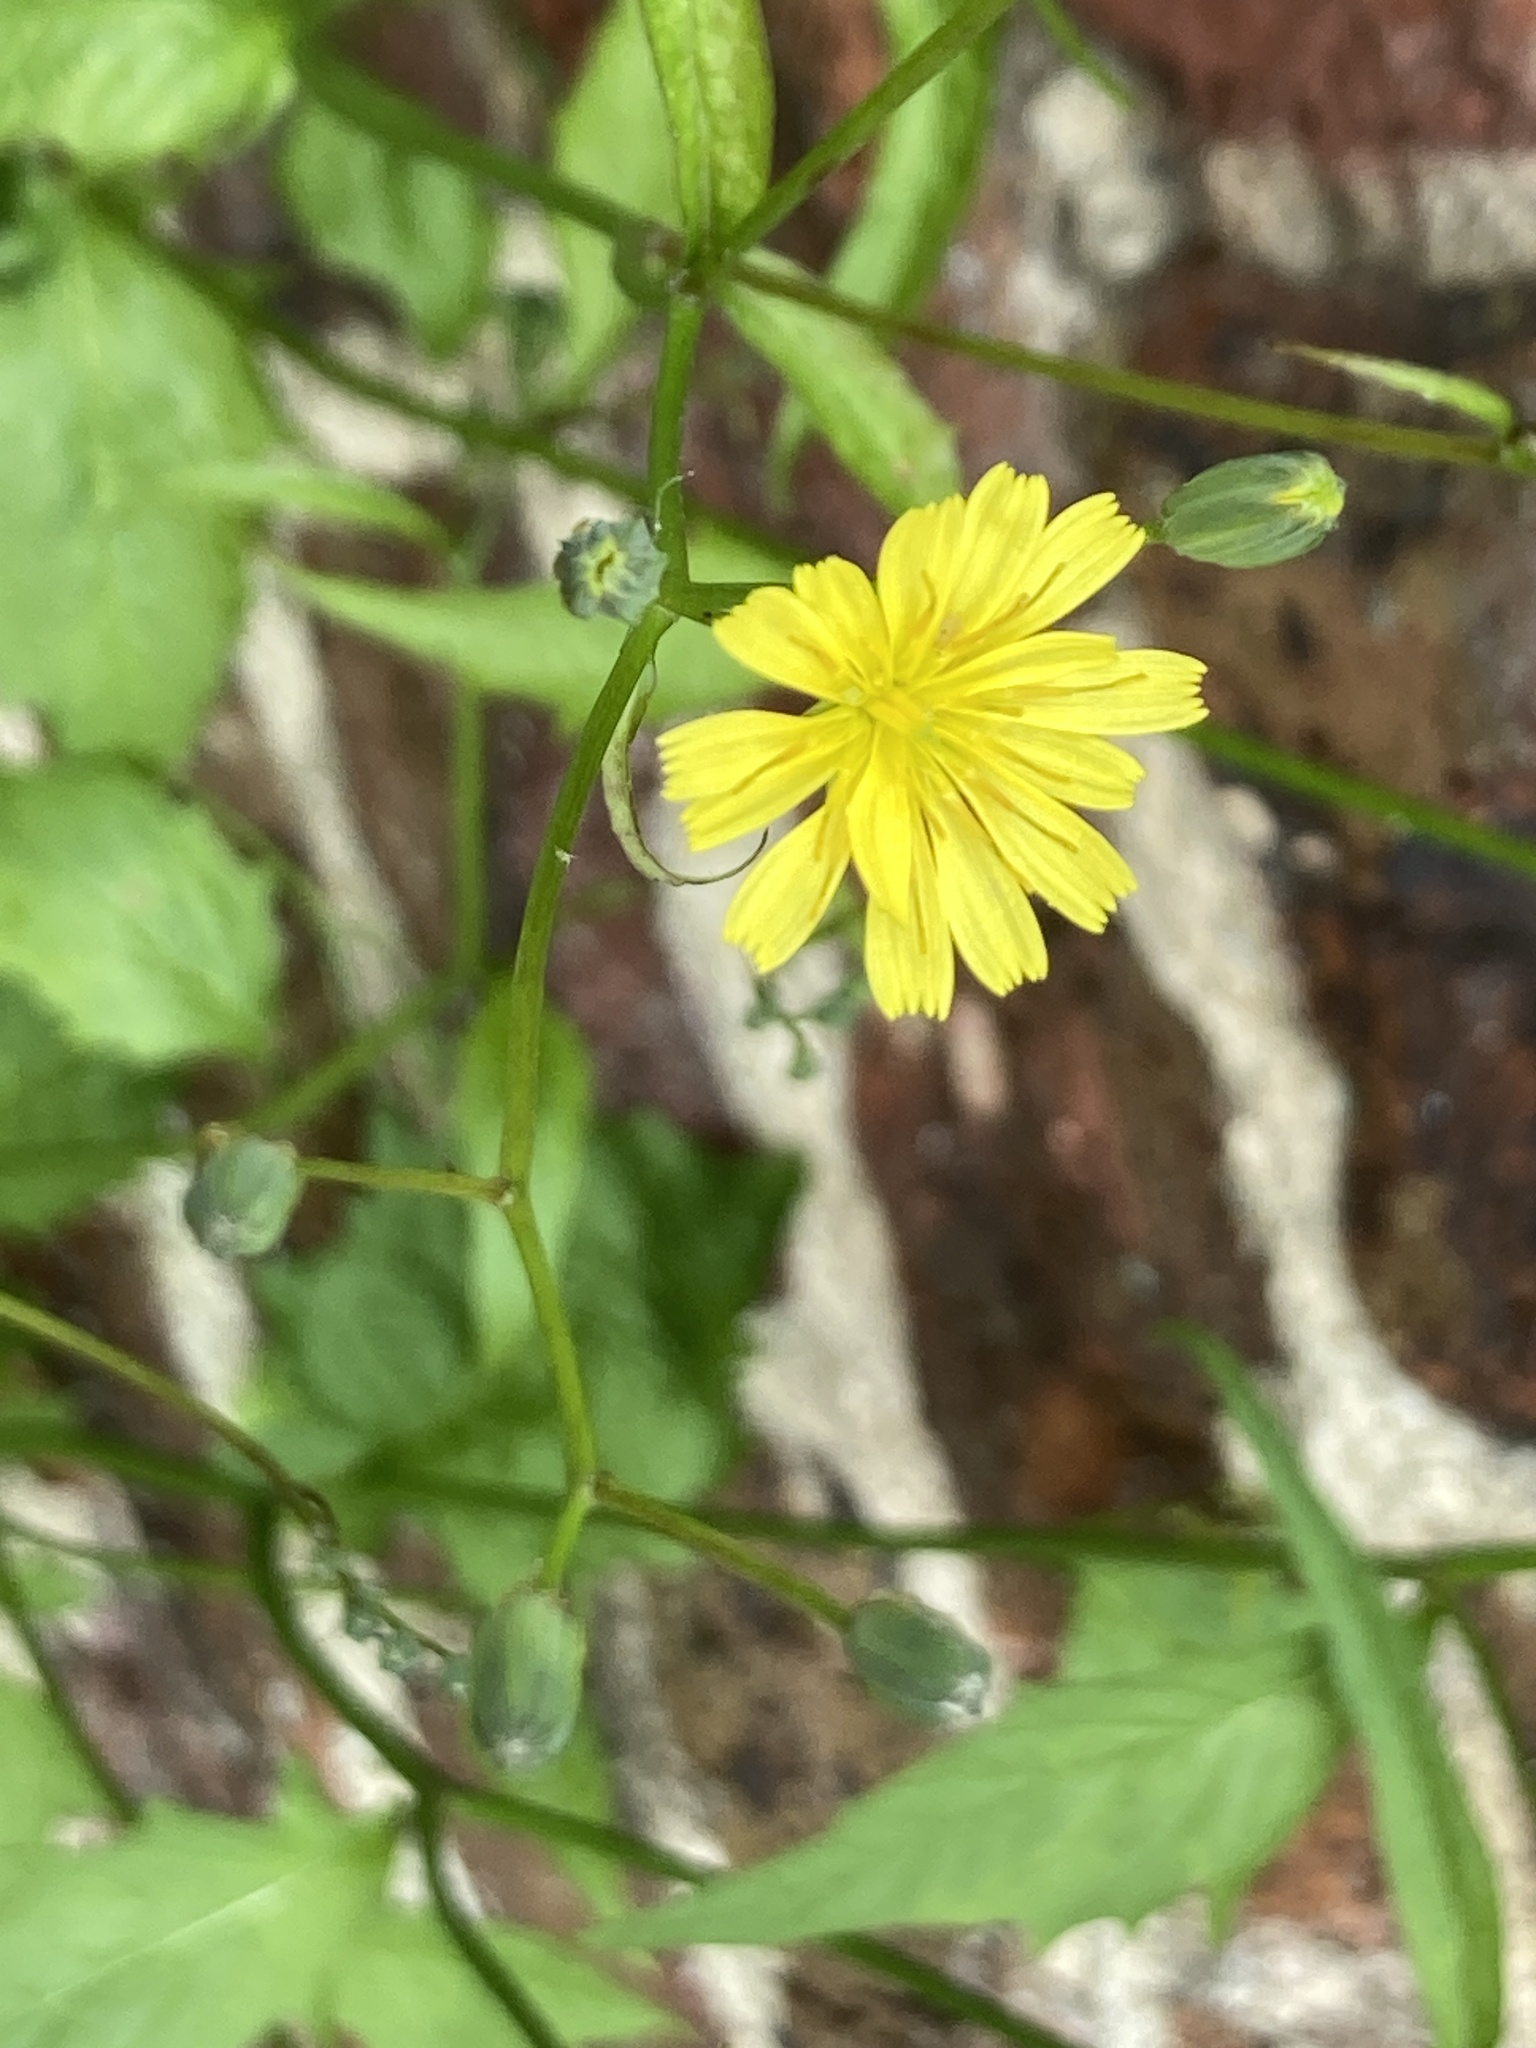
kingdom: Plantae
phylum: Tracheophyta
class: Magnoliopsida
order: Asterales
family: Asteraceae
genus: Lapsana
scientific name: Lapsana communis
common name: Nipplewort
